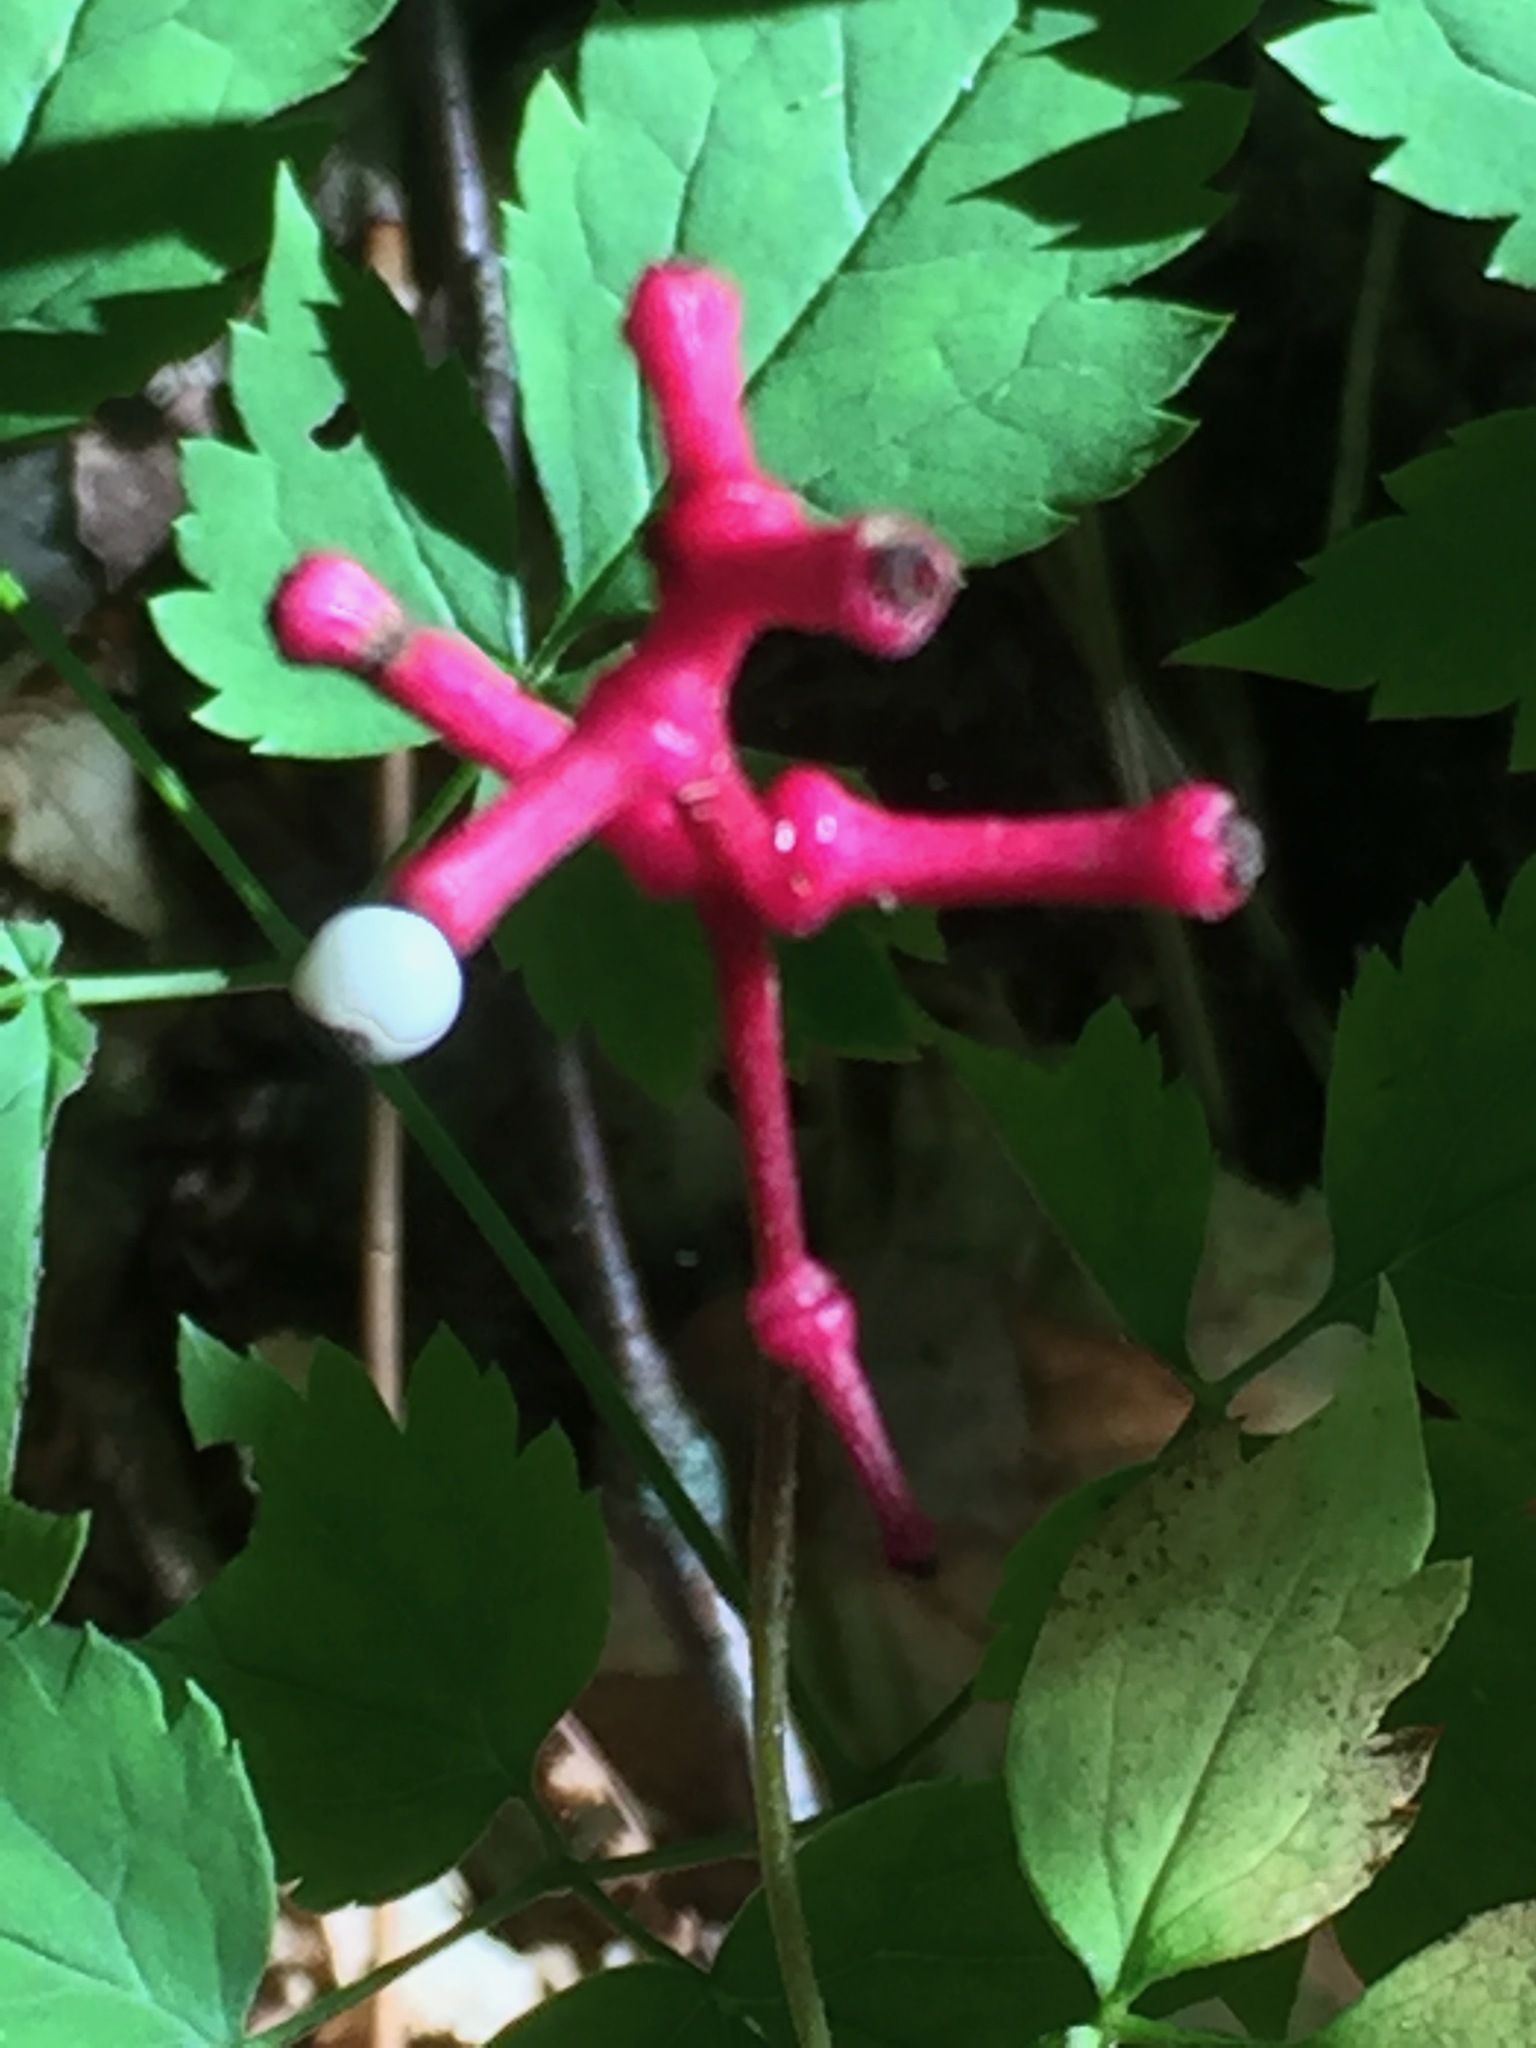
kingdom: Plantae
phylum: Tracheophyta
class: Magnoliopsida
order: Ranunculales
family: Ranunculaceae
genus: Actaea
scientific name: Actaea pachypoda
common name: Doll's-eyes
